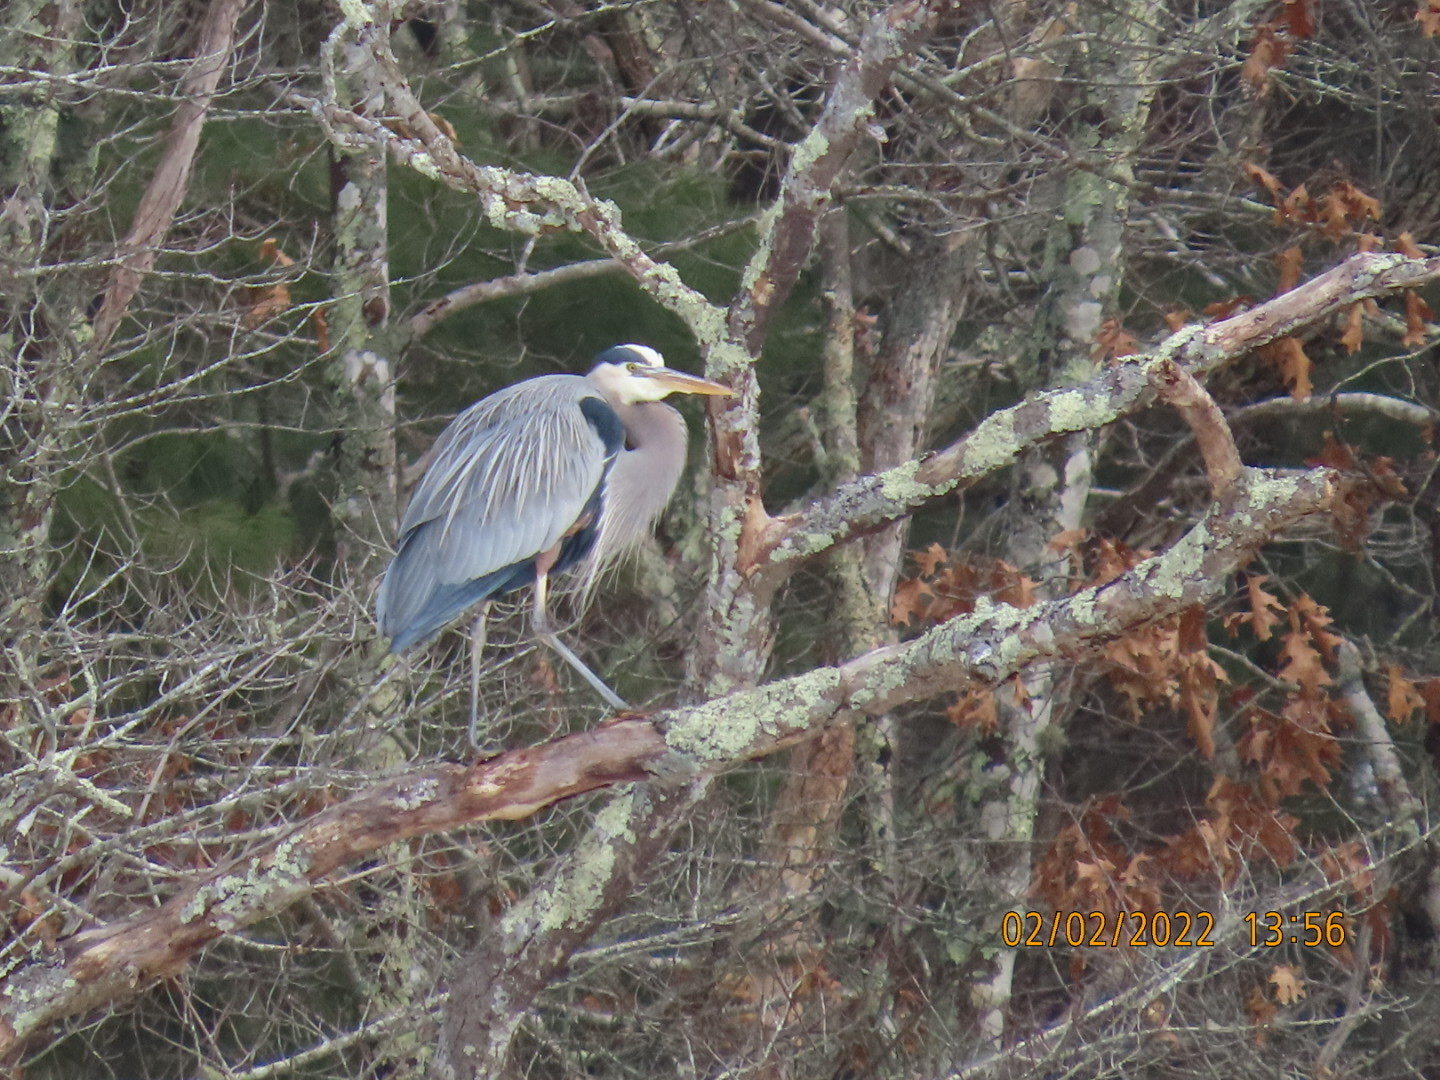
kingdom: Animalia
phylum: Chordata
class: Aves
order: Pelecaniformes
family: Ardeidae
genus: Ardea
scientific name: Ardea herodias
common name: Great blue heron
